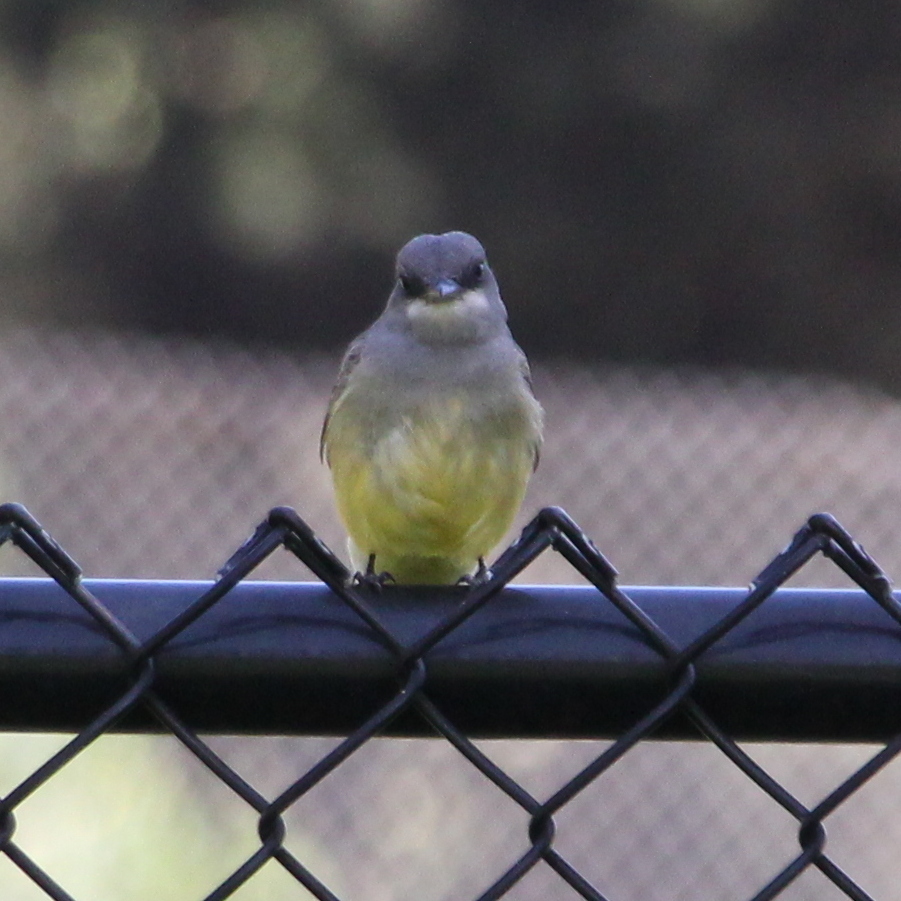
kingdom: Animalia
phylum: Chordata
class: Aves
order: Passeriformes
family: Tyrannidae
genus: Tyrannus
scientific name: Tyrannus vociferans
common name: Cassin's kingbird
